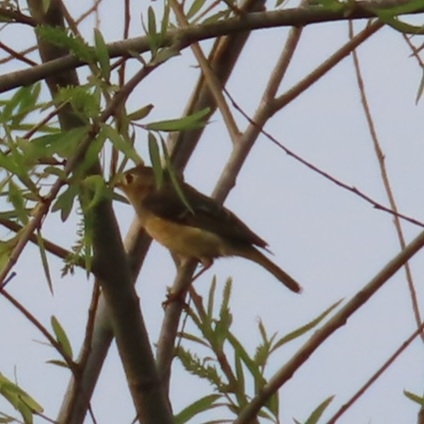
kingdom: Animalia
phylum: Chordata
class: Aves
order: Passeriformes
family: Regulidae
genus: Regulus
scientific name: Regulus calendula
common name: Ruby-crowned kinglet
